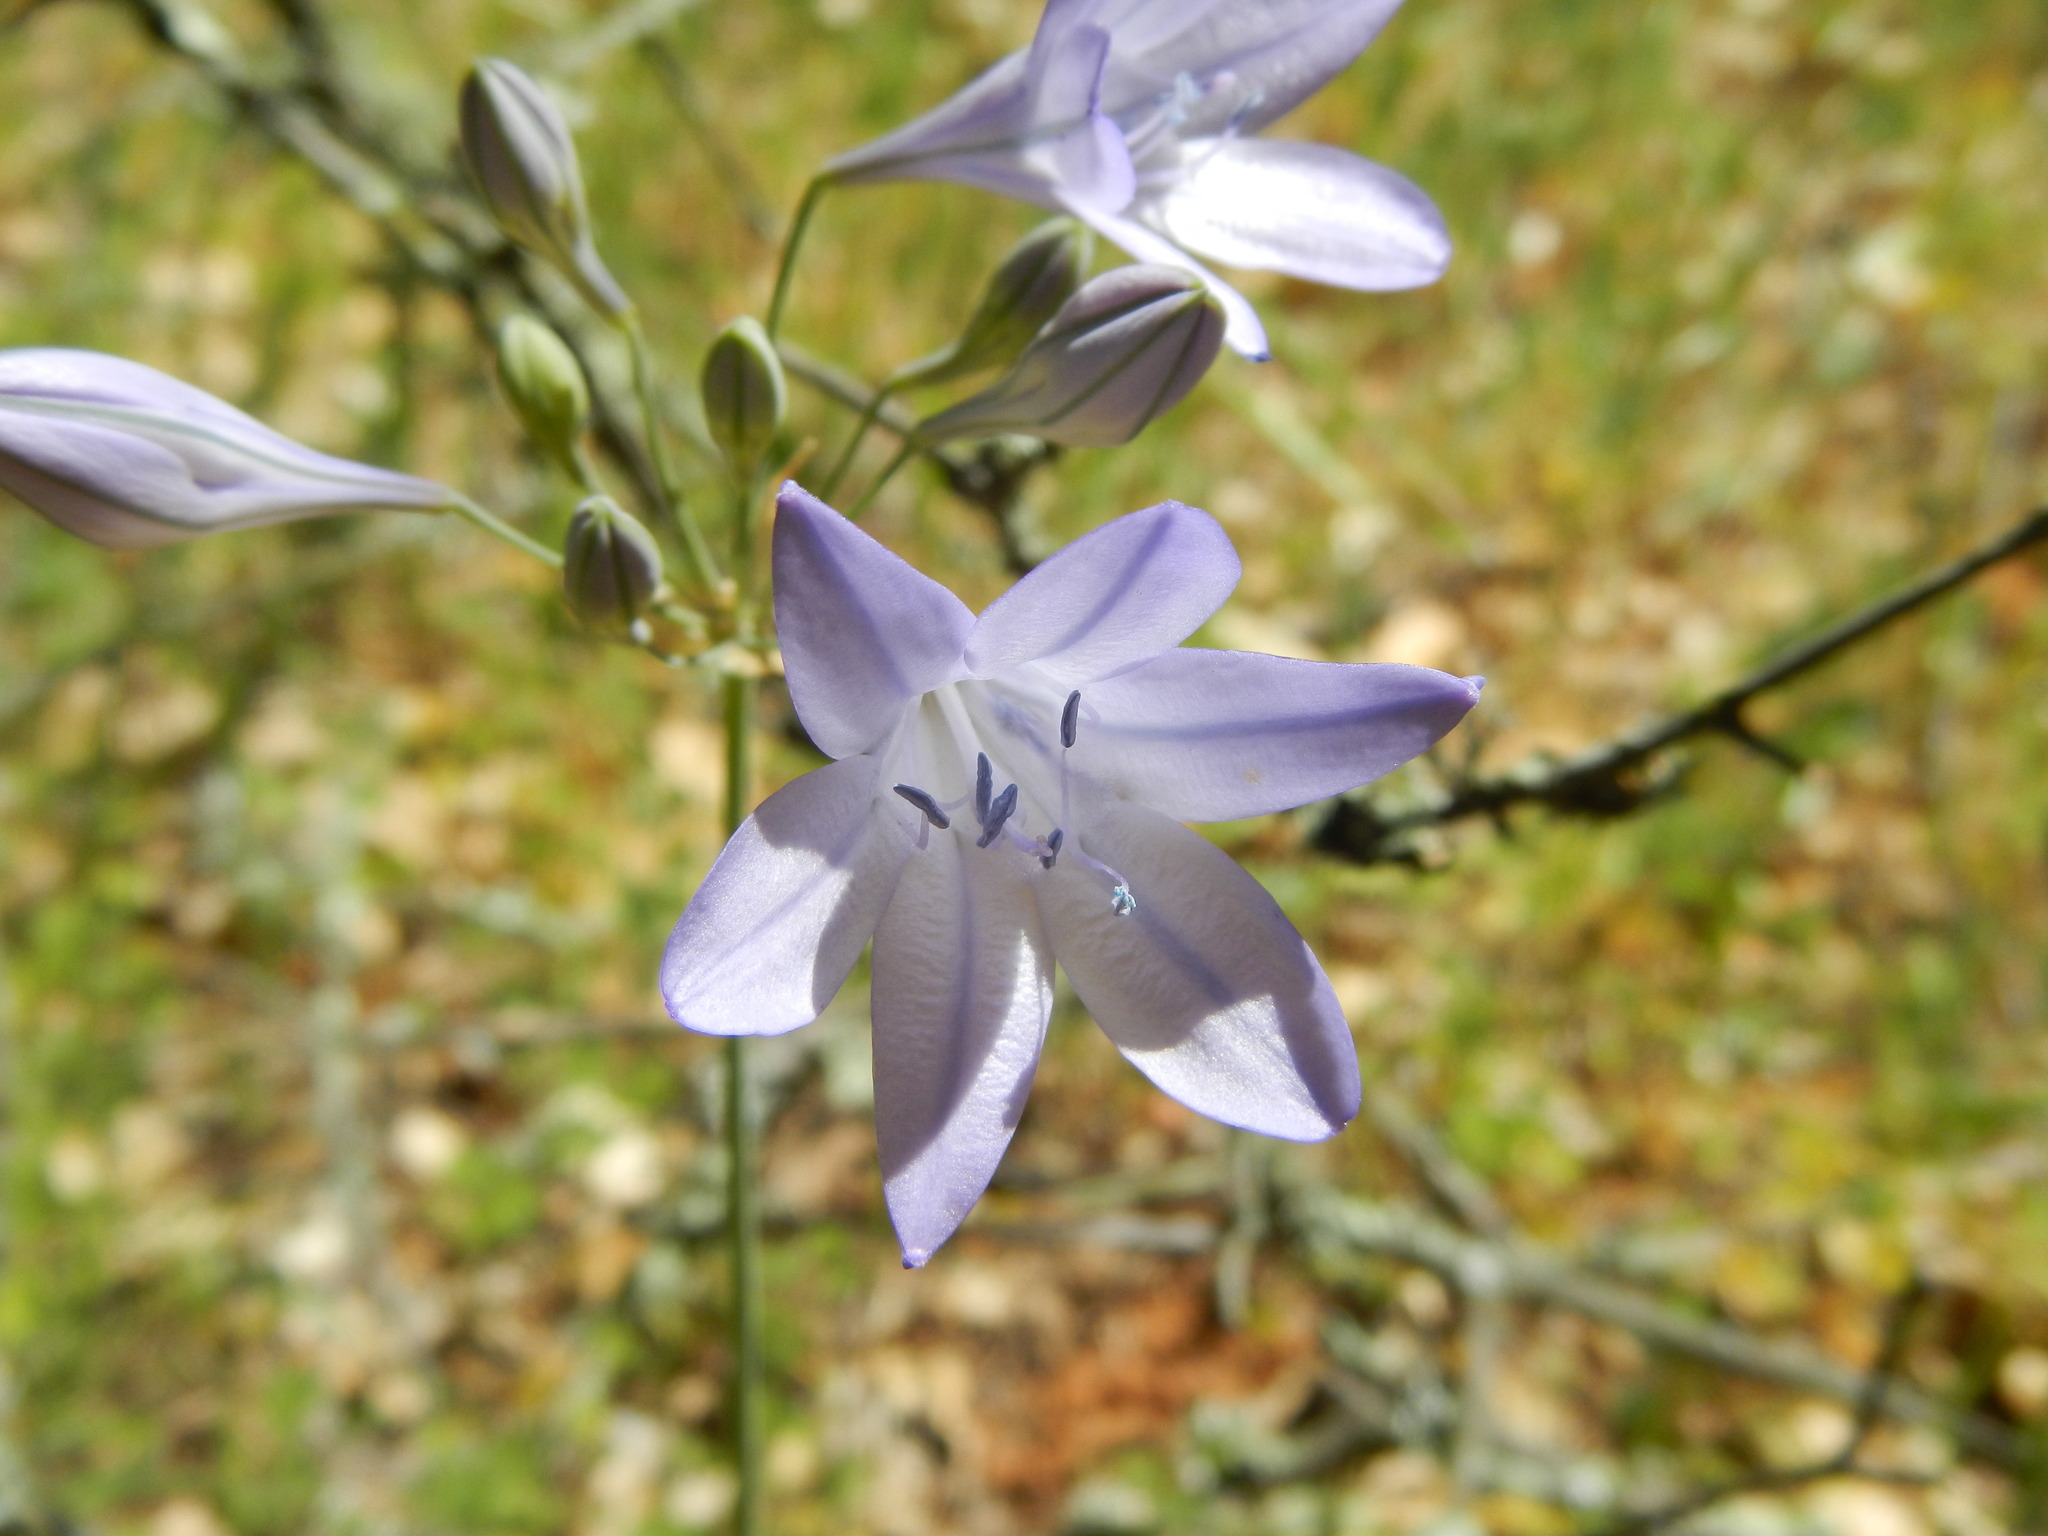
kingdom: Plantae
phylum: Tracheophyta
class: Liliopsida
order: Asparagales
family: Asparagaceae
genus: Triteleia
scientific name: Triteleia laxa
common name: Triplet-lily
